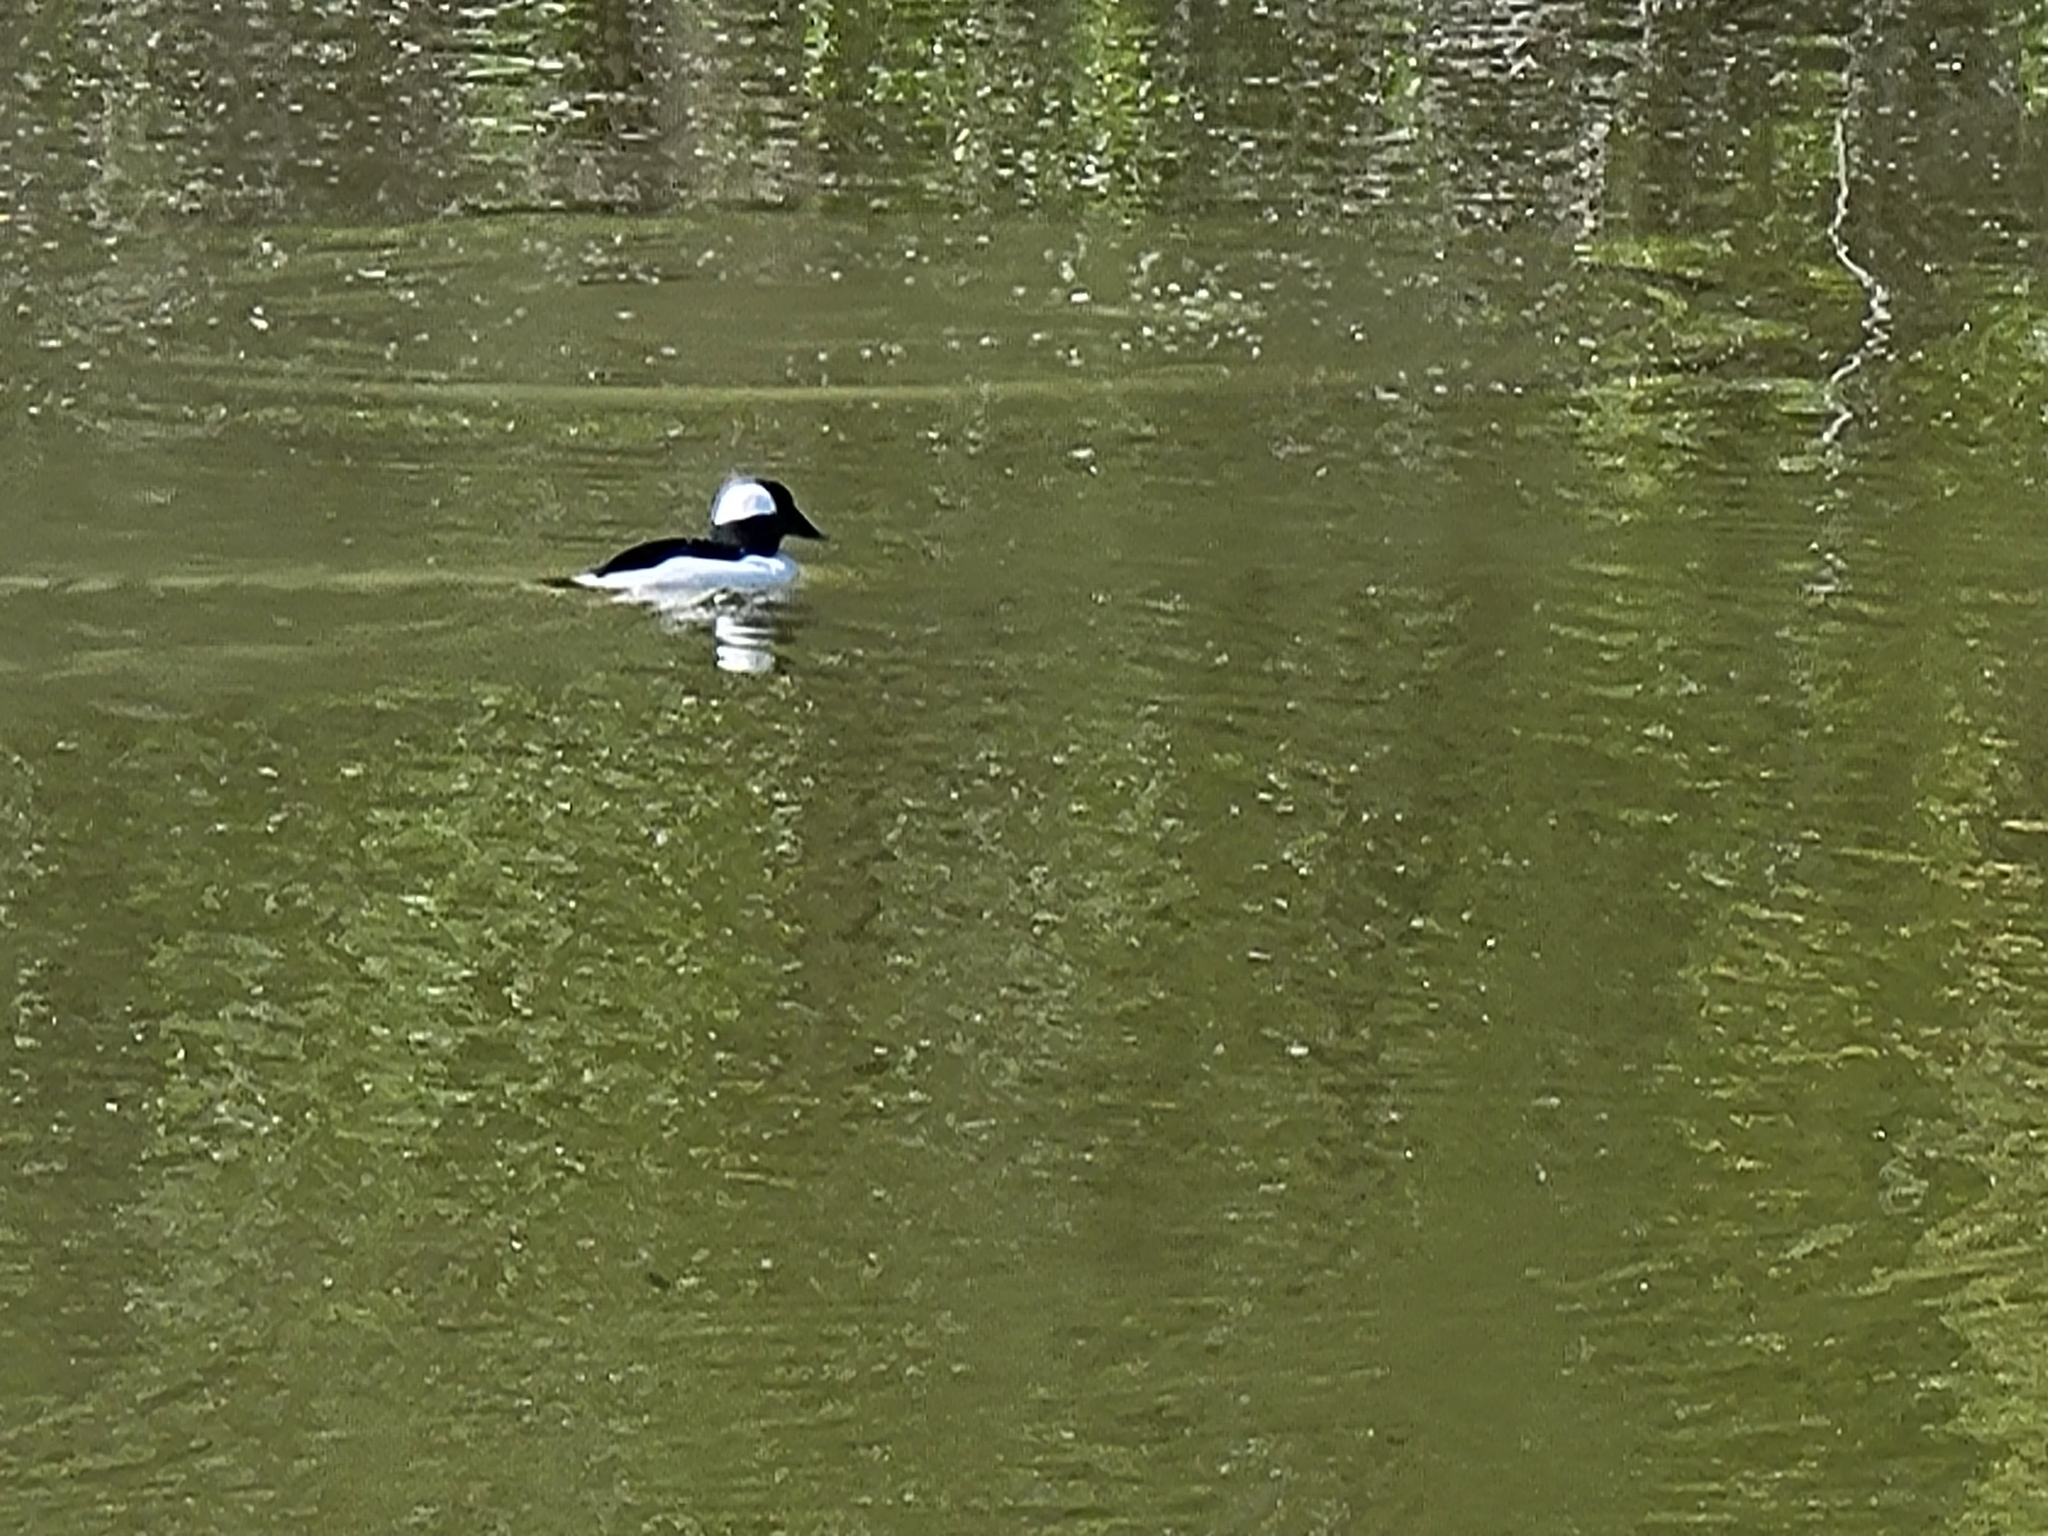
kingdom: Animalia
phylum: Chordata
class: Aves
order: Anseriformes
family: Anatidae
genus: Bucephala
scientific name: Bucephala albeola
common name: Bufflehead
